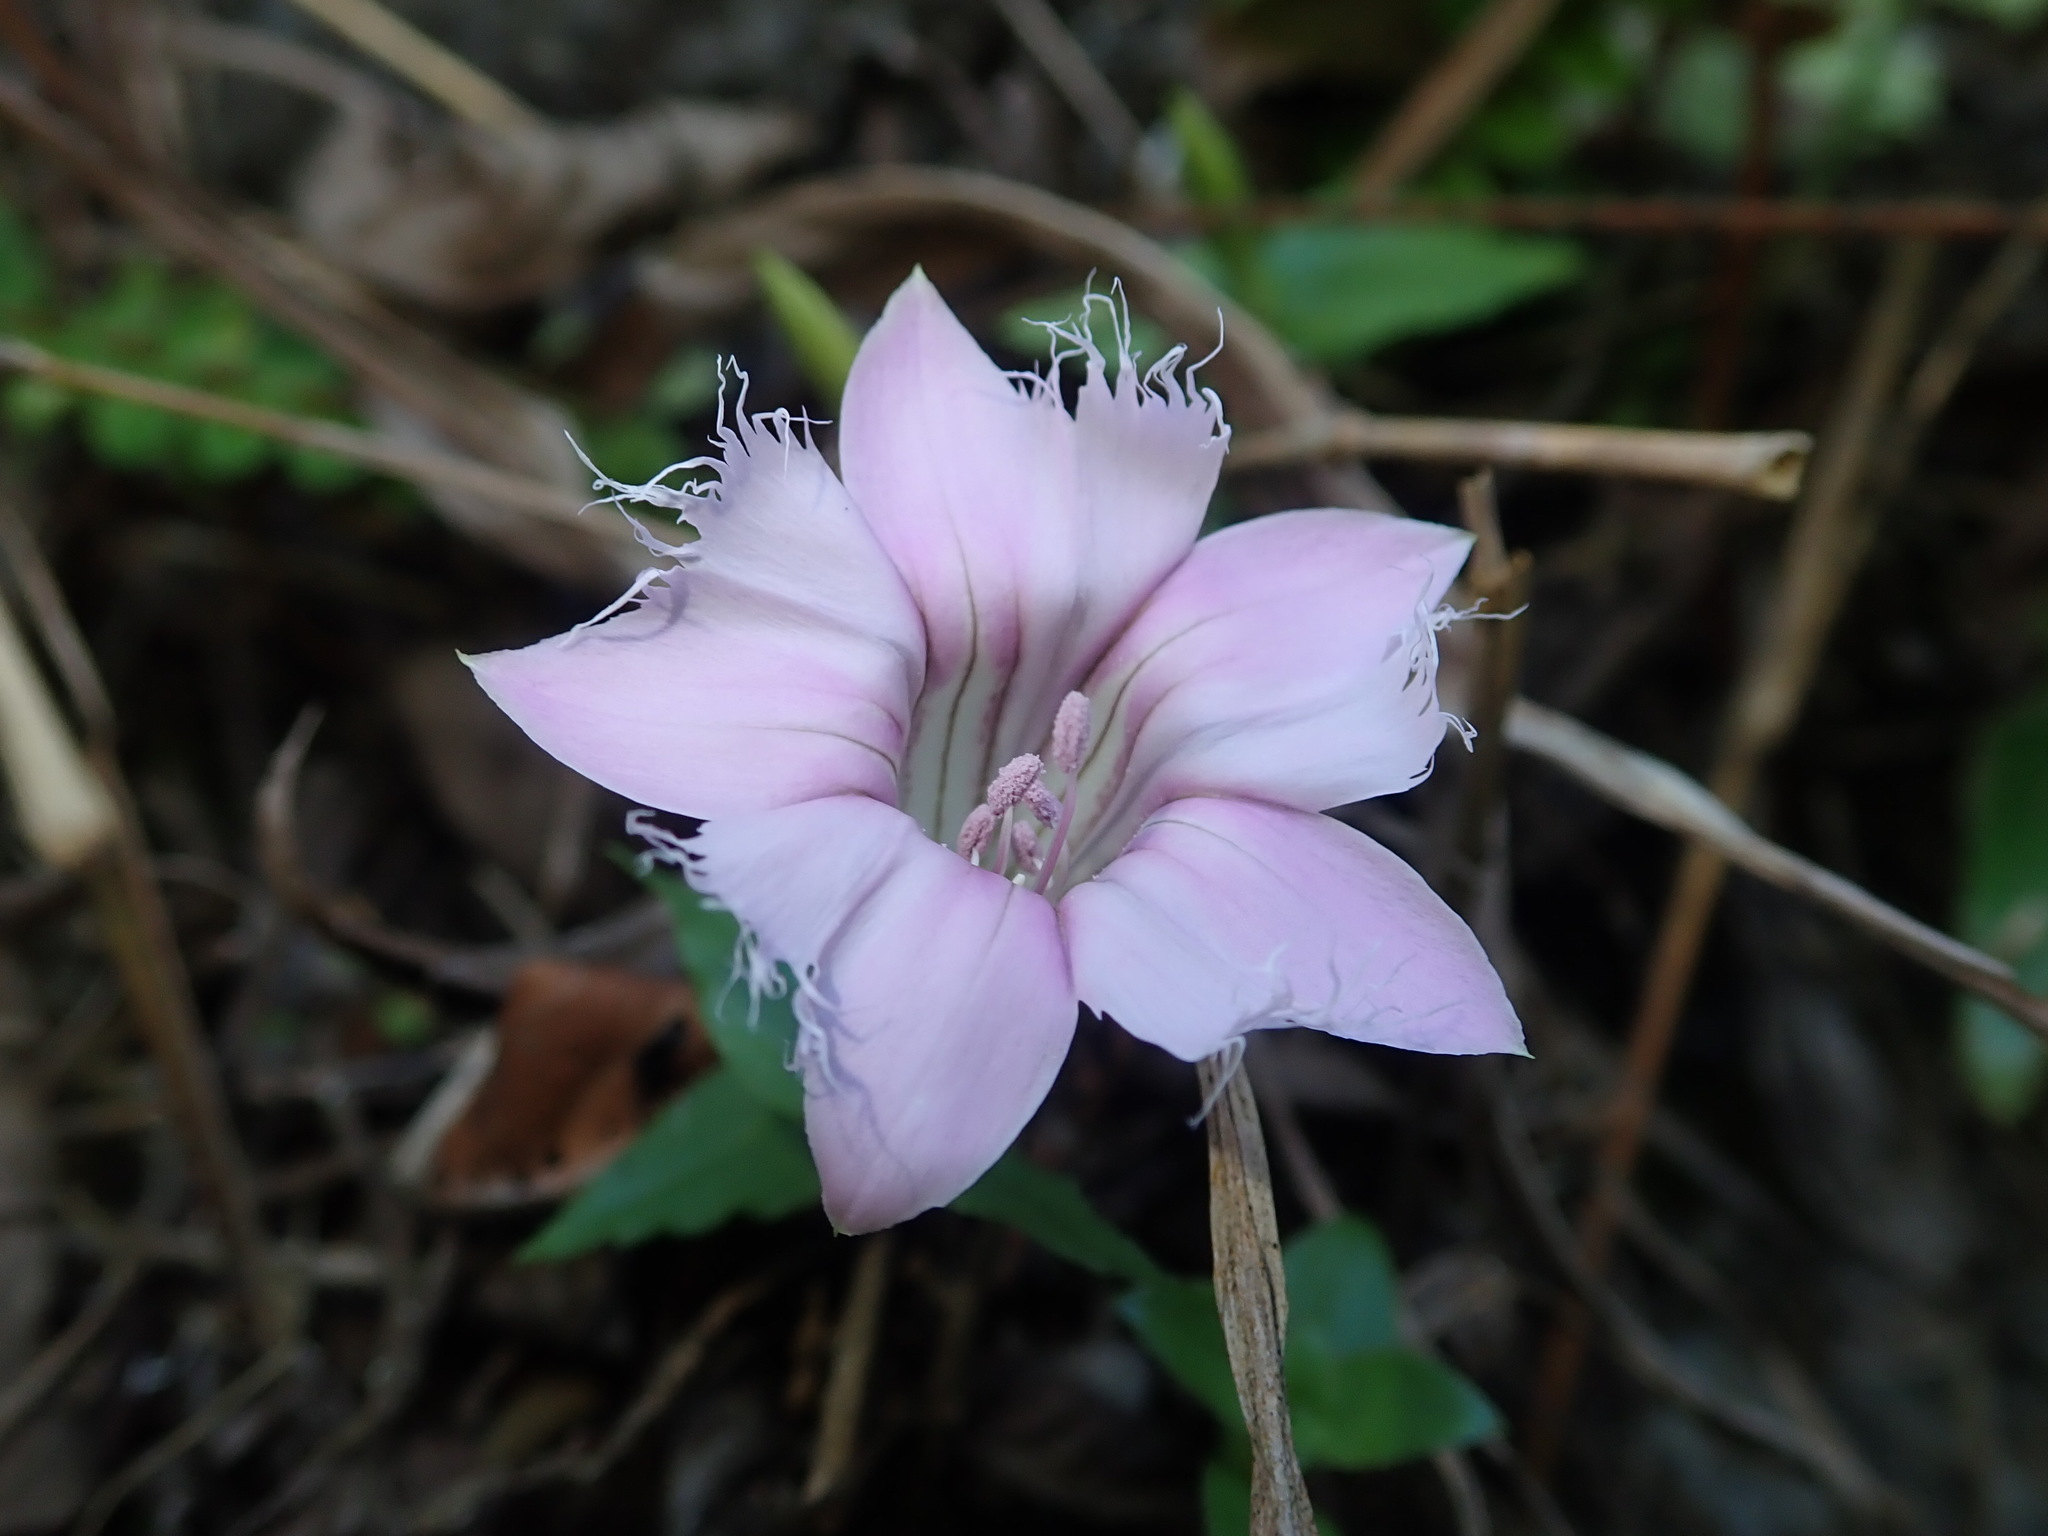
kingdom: Plantae
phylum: Tracheophyta
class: Magnoliopsida
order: Gentianales
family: Gentianaceae
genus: Metagentiana
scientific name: Metagentiana rhodantha
